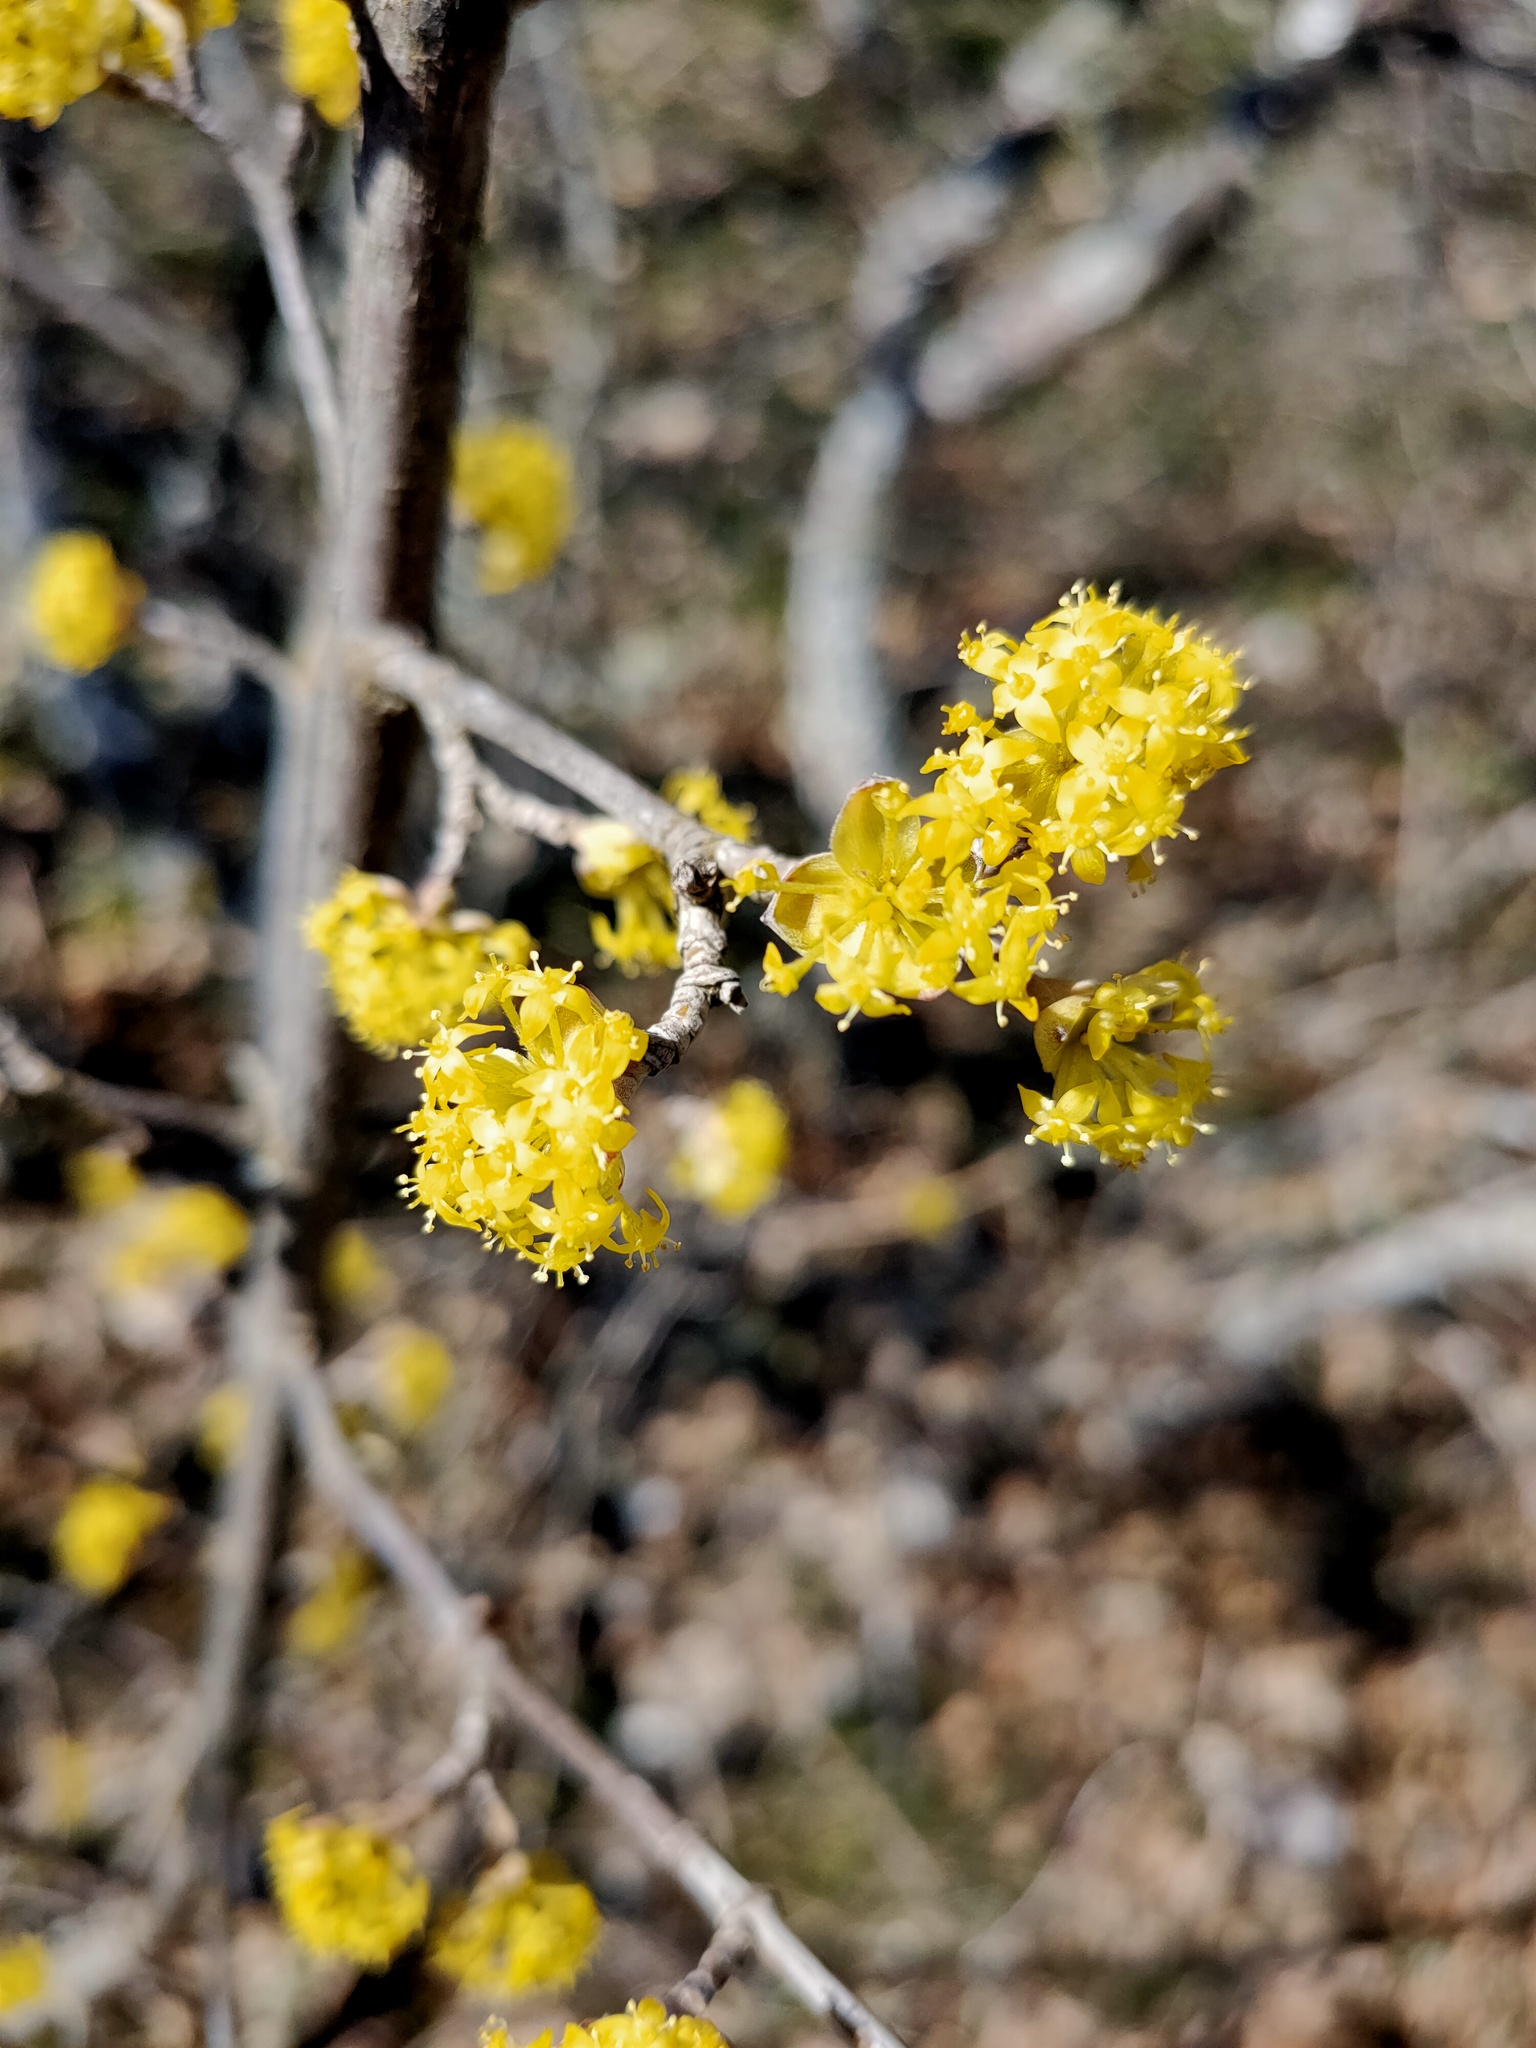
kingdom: Plantae
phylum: Tracheophyta
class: Magnoliopsida
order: Cornales
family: Cornaceae
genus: Cornus
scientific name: Cornus mas
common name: Cornelian-cherry
